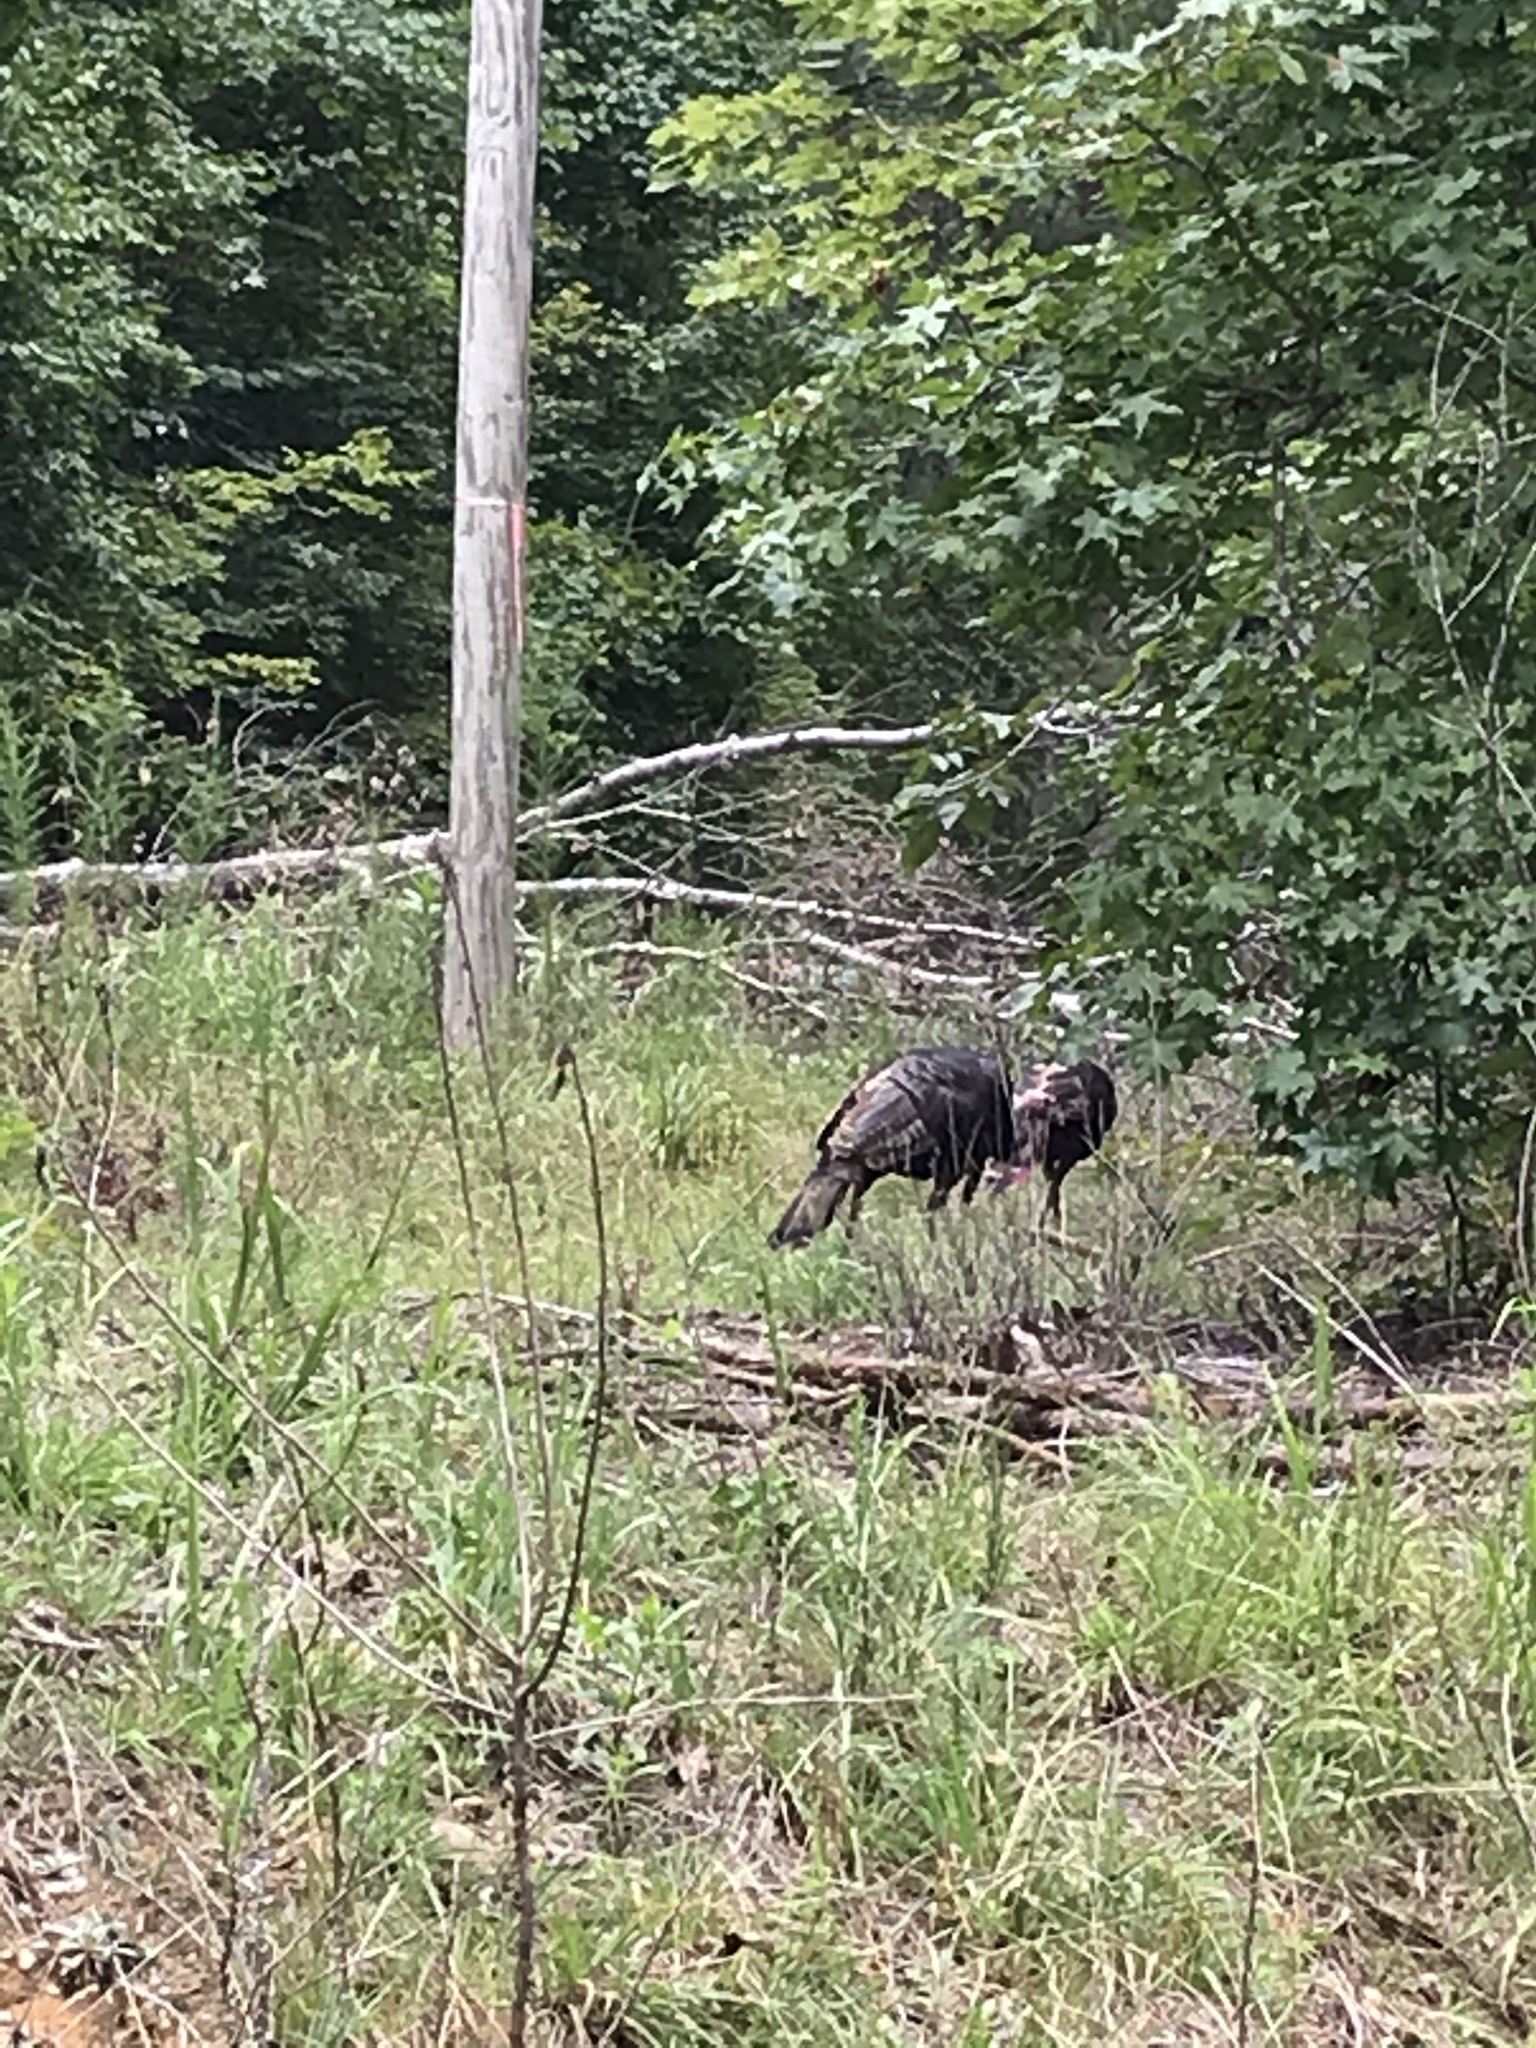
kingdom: Animalia
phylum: Chordata
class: Aves
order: Galliformes
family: Phasianidae
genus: Meleagris
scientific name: Meleagris gallopavo
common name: Wild turkey
